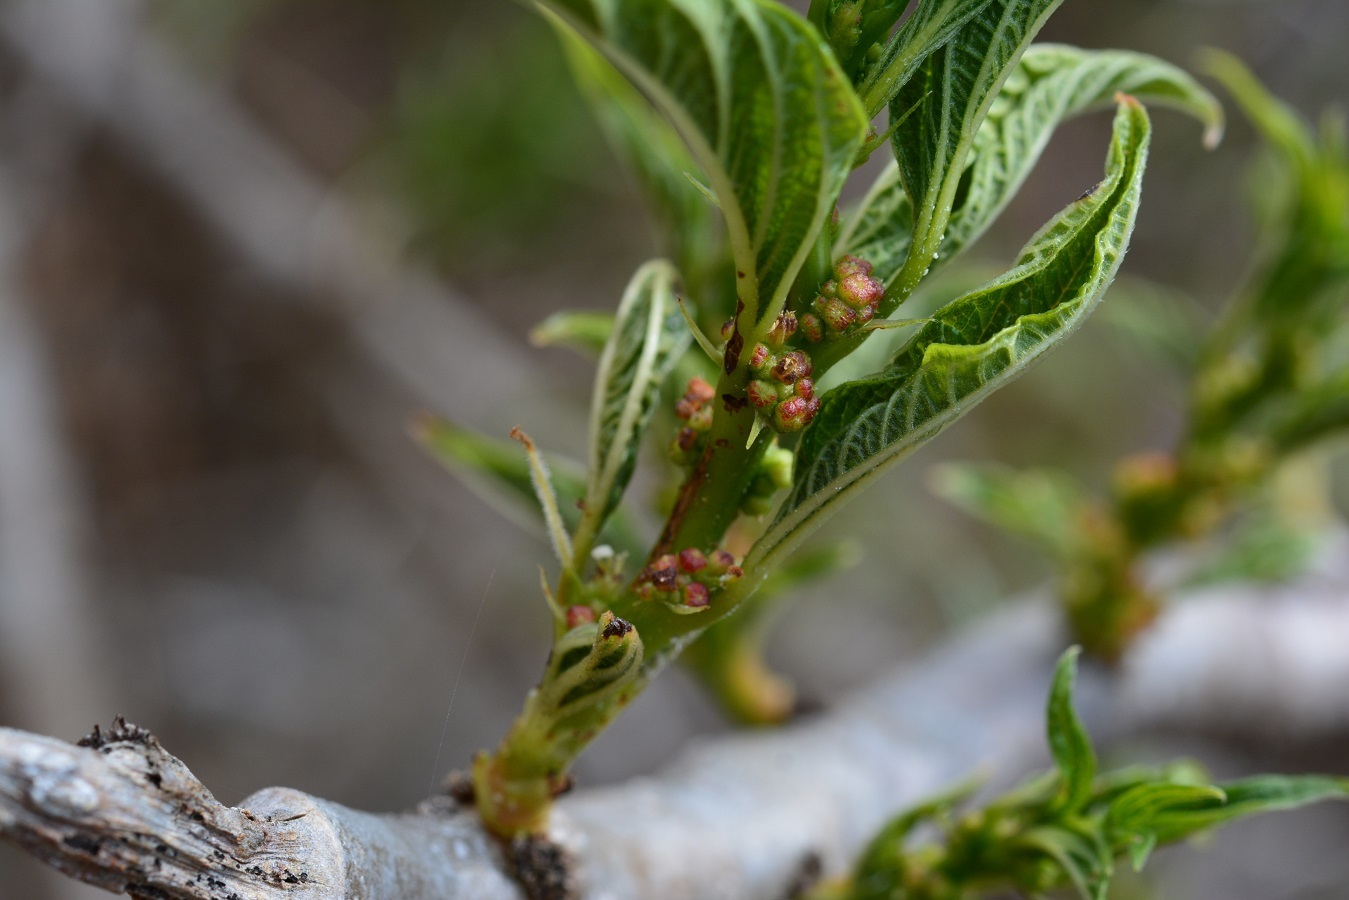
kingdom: Plantae
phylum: Tracheophyta
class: Magnoliopsida
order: Rosales
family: Urticaceae
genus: Pouzolzia
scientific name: Pouzolzia occidentalis
